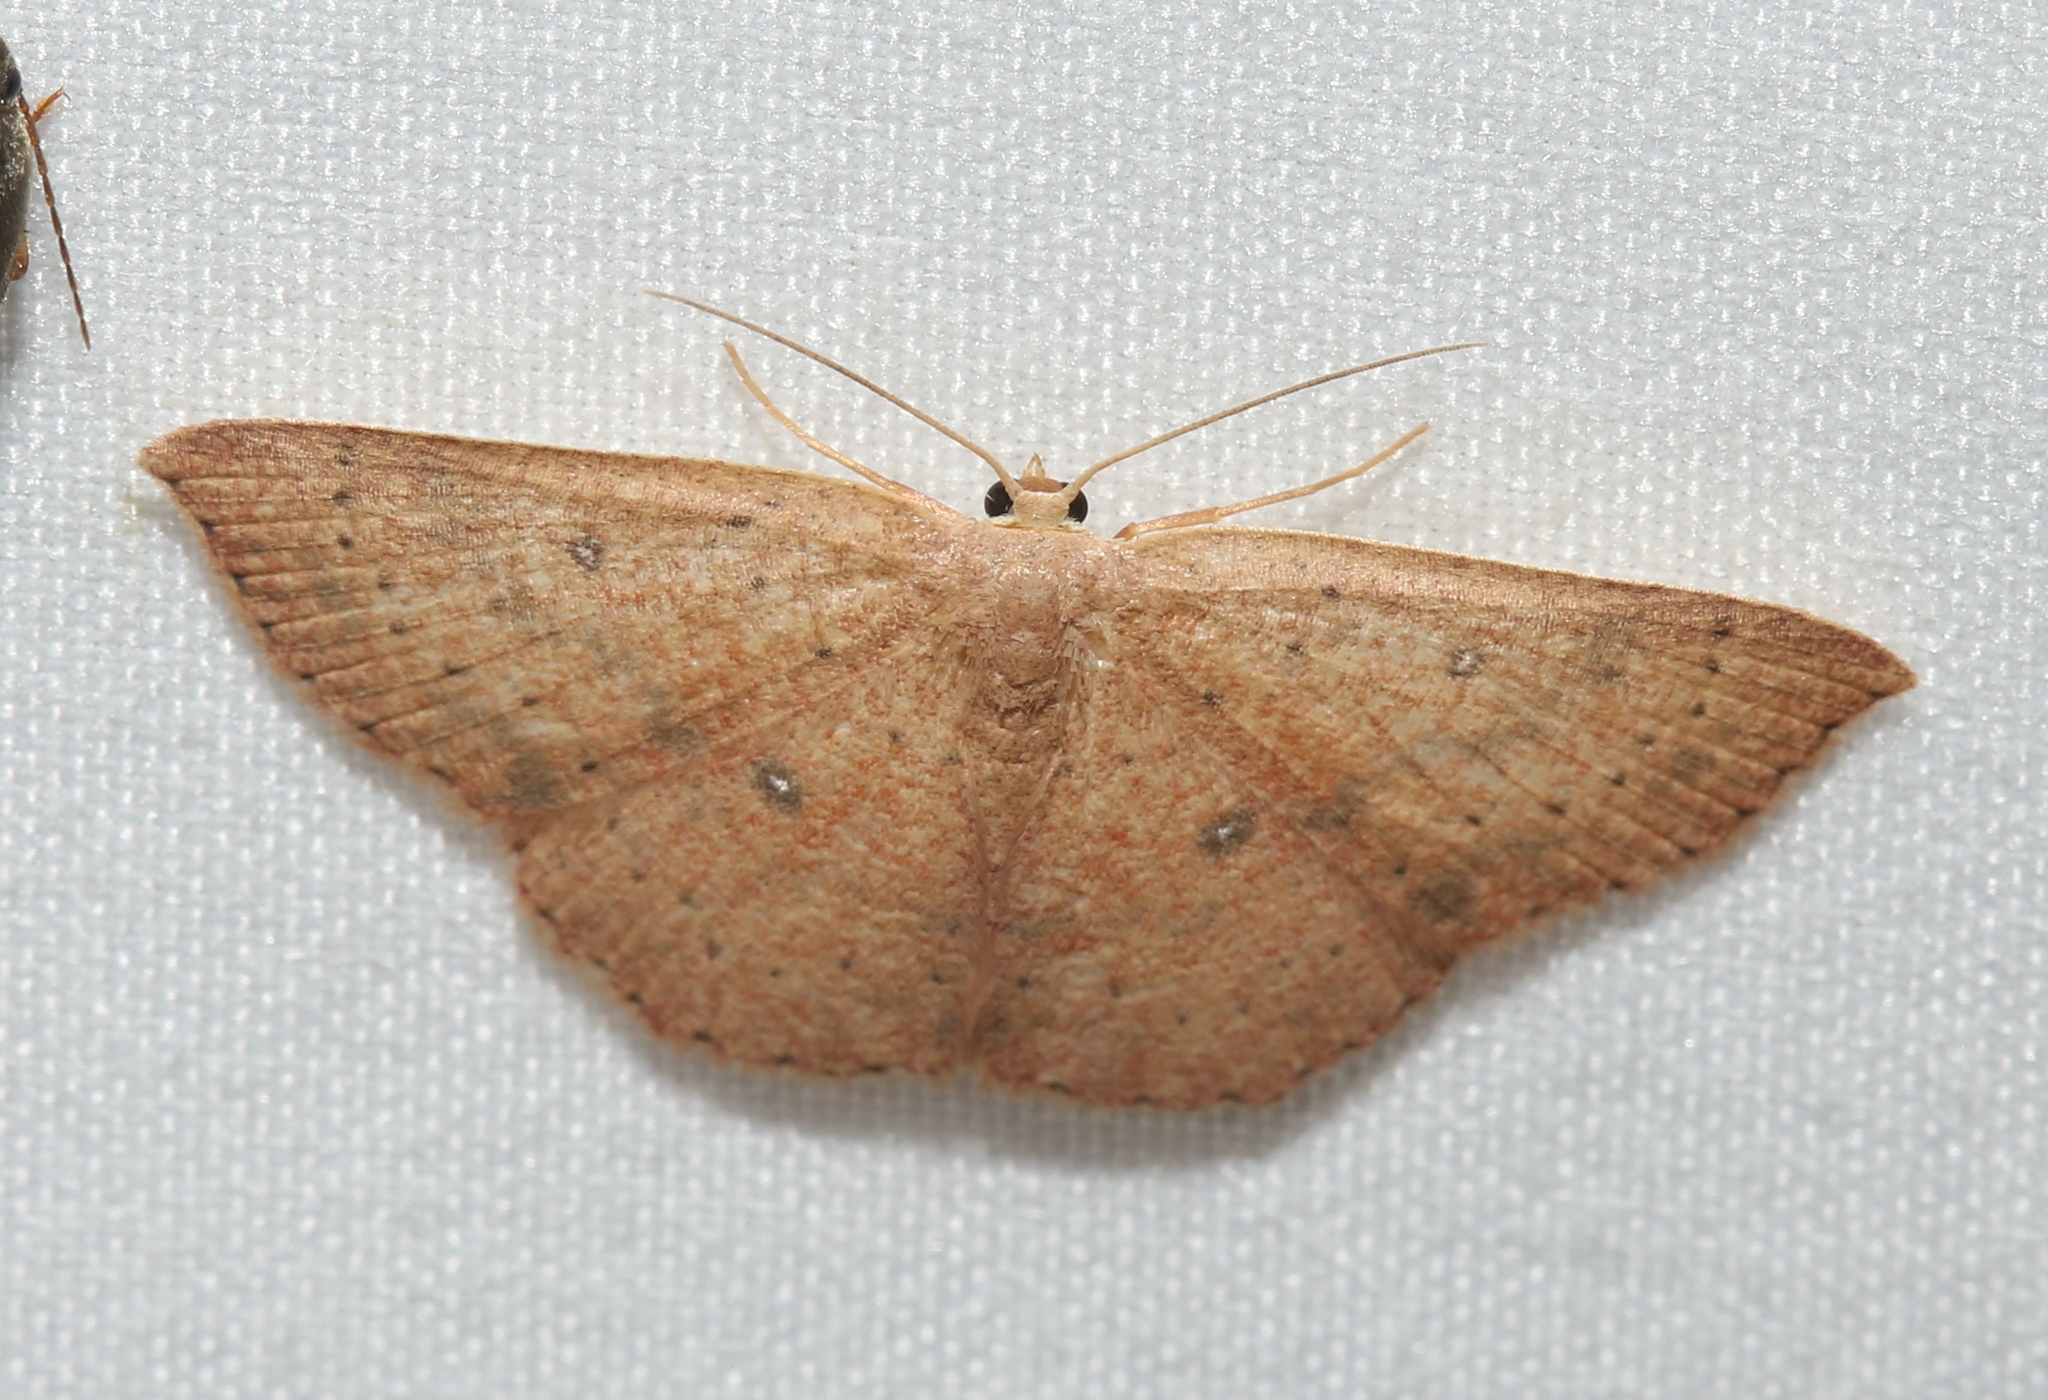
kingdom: Animalia
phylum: Arthropoda
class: Insecta
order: Lepidoptera
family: Geometridae
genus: Cyclophora
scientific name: Cyclophora packardi
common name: Packard's wave
